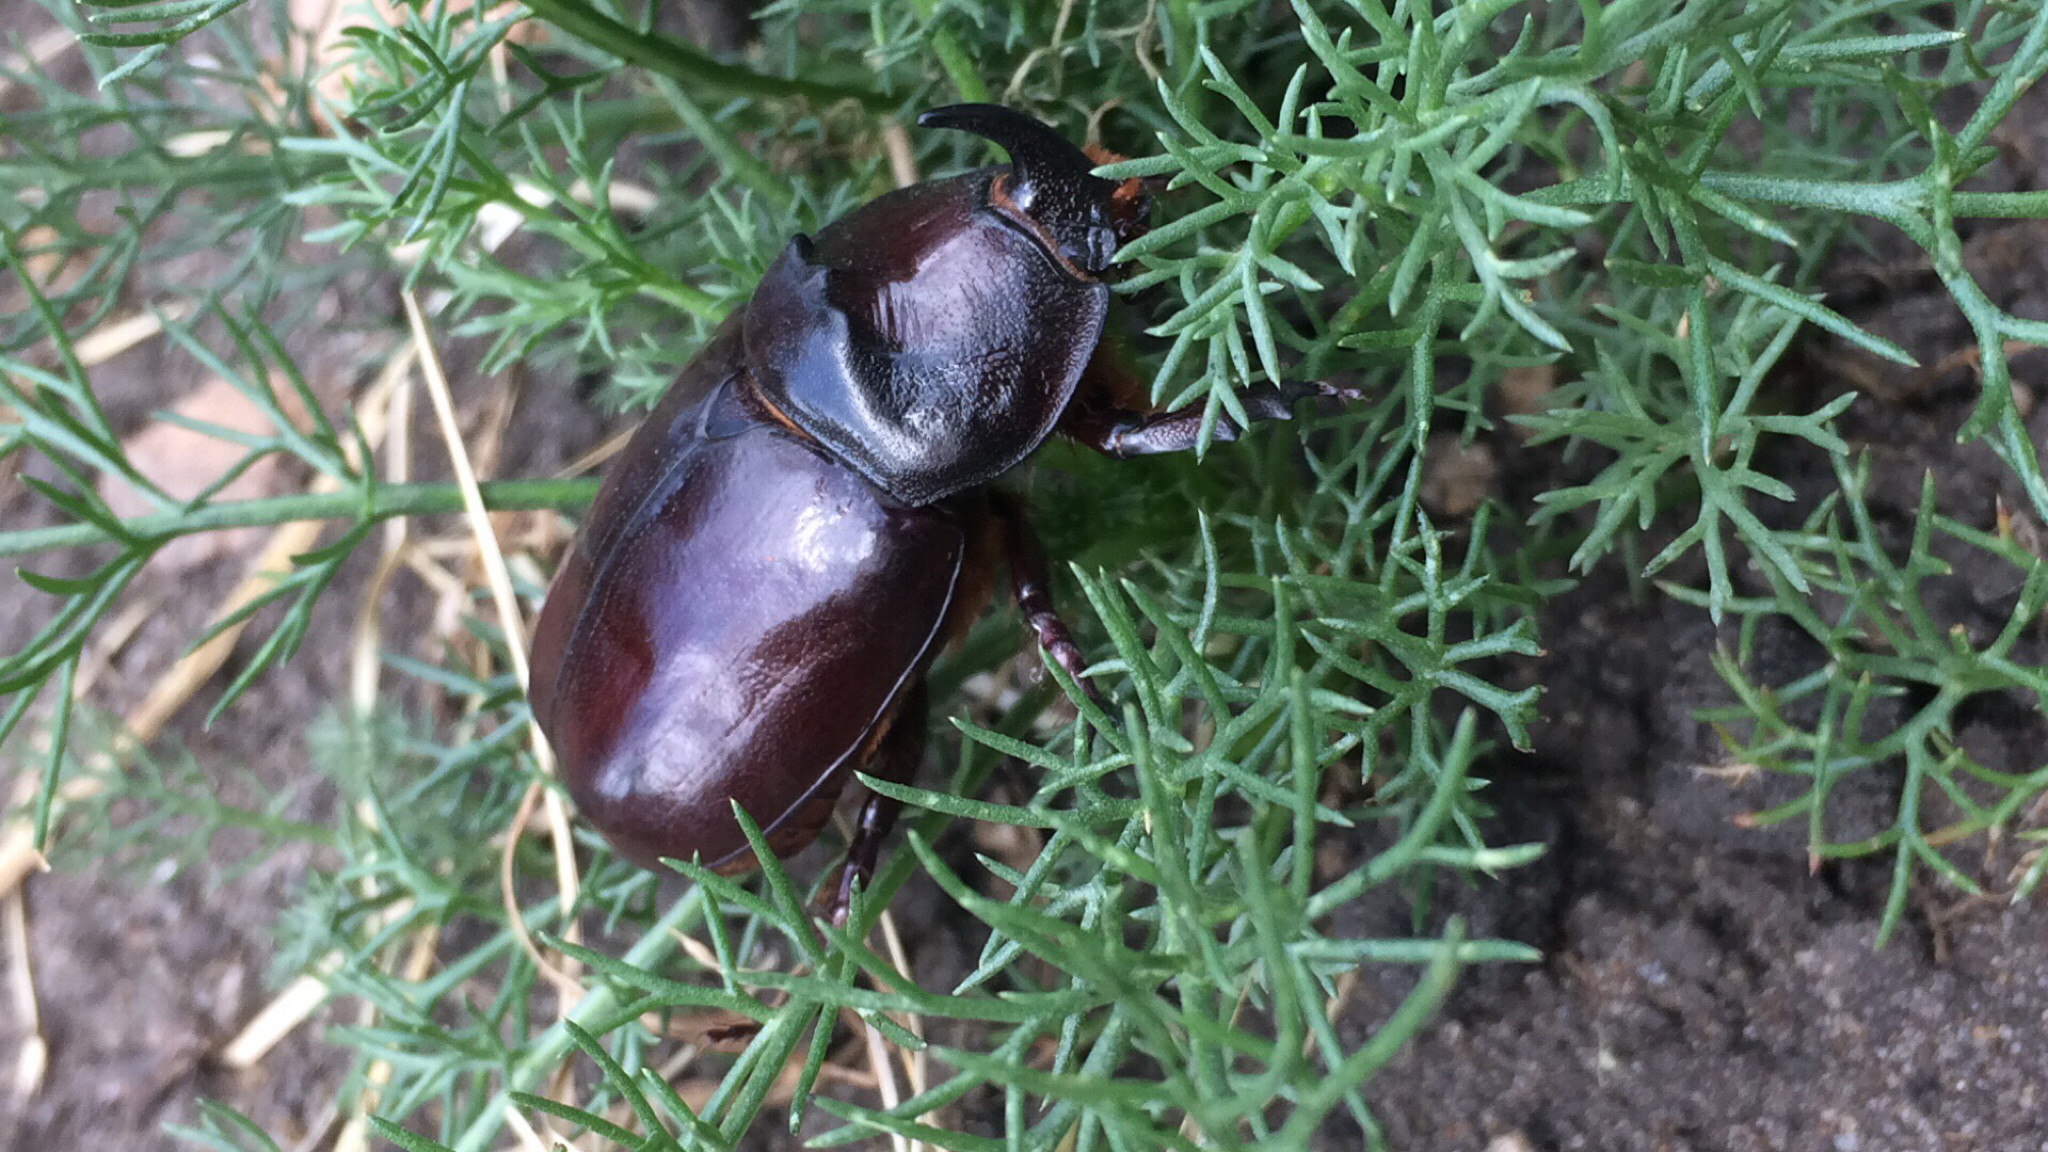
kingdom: Animalia
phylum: Arthropoda
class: Insecta
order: Coleoptera
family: Scarabaeidae
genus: Oryctes
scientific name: Oryctes nasicornis
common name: European rhinoceros beetle
